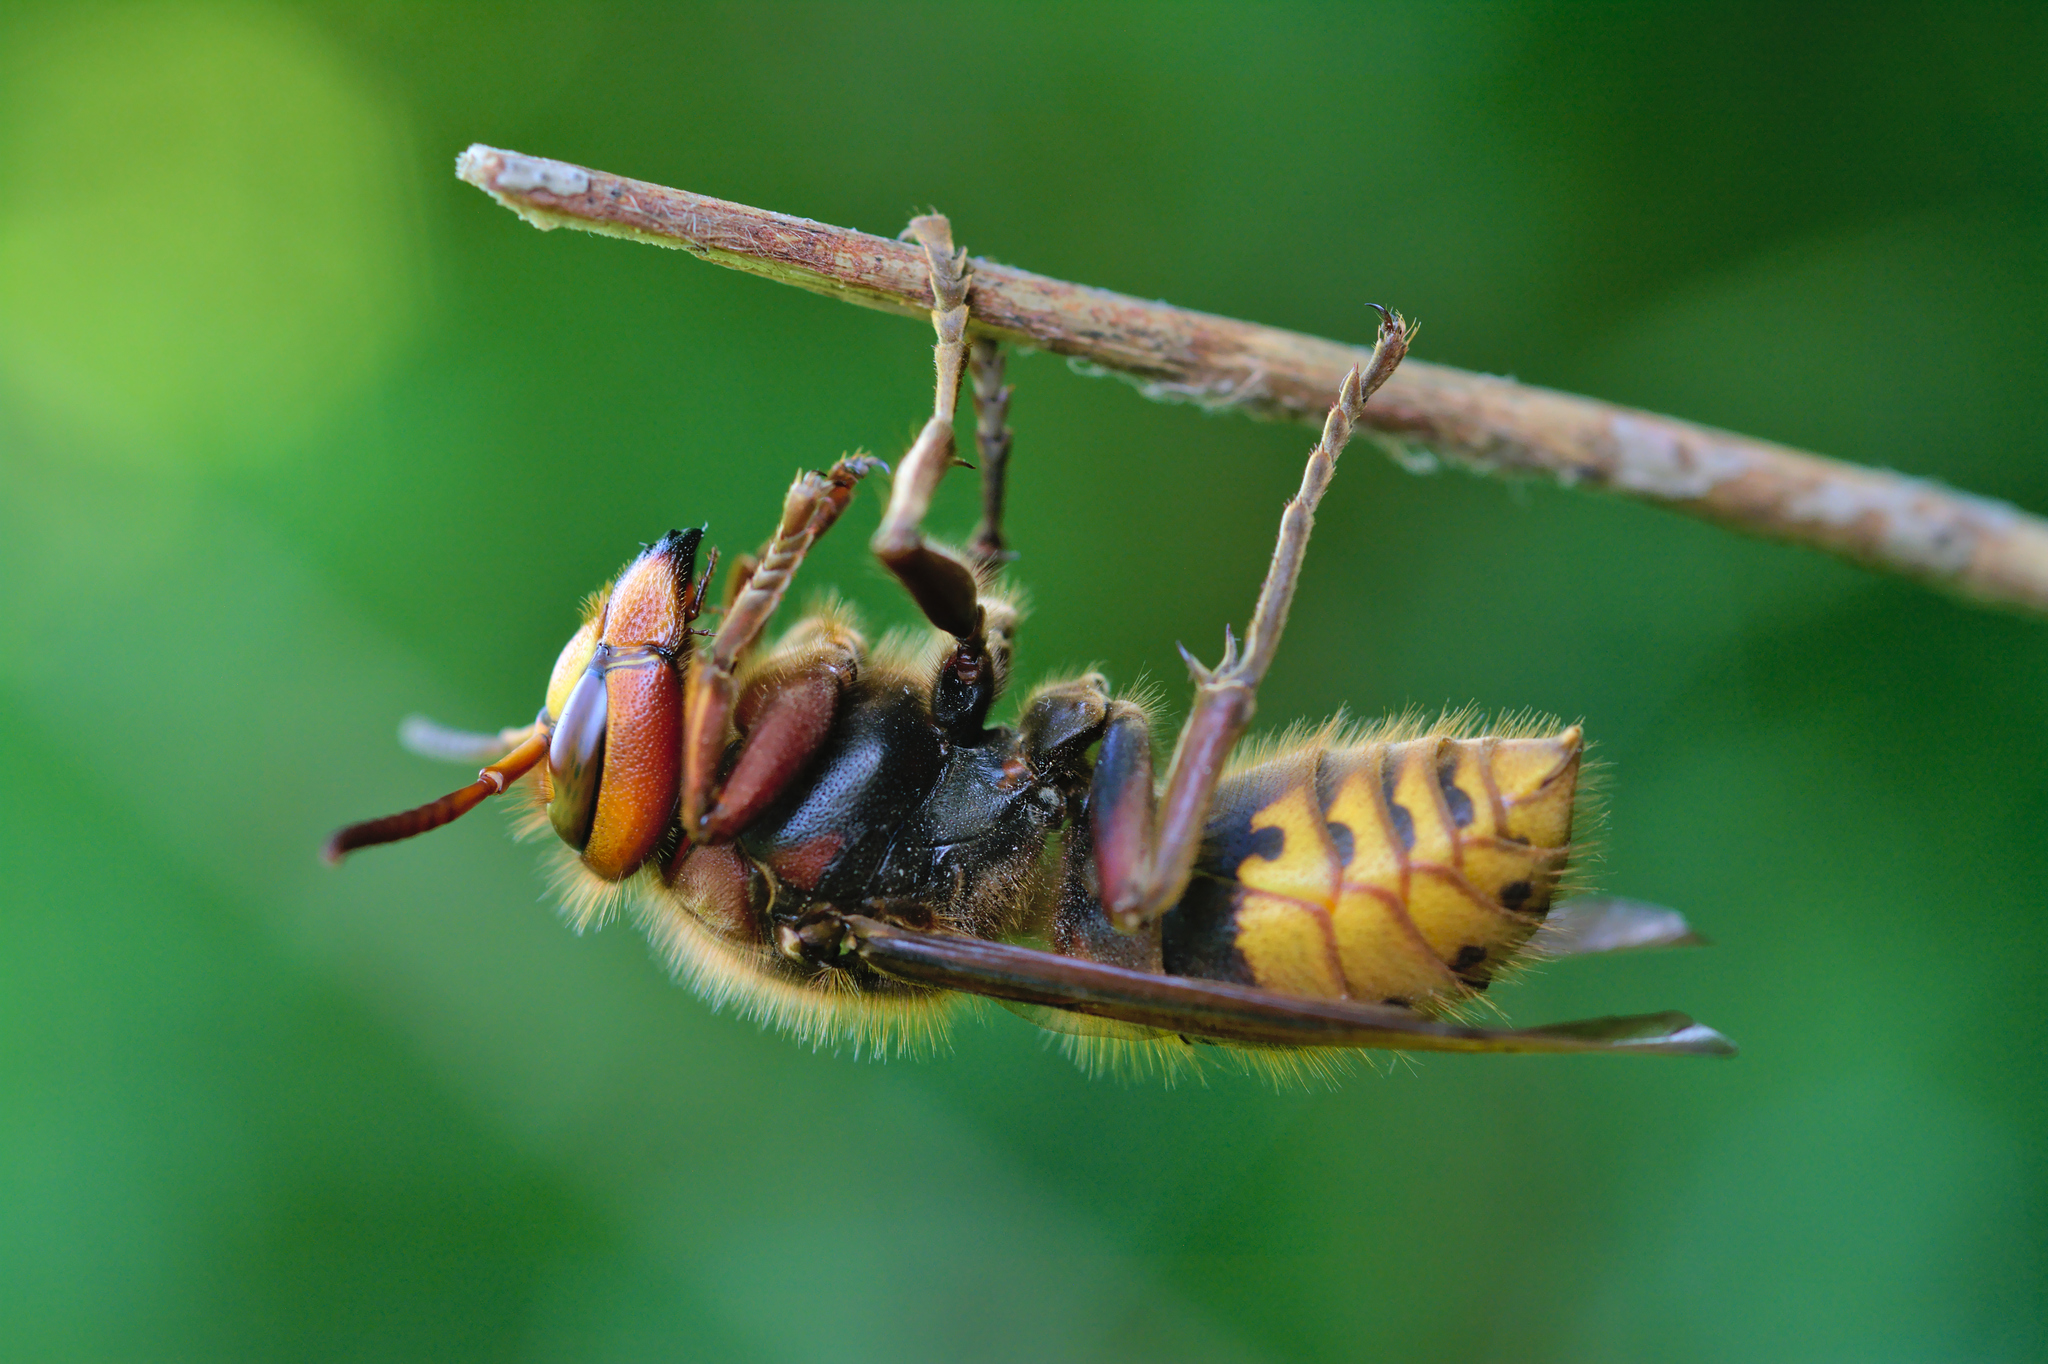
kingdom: Animalia
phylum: Arthropoda
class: Insecta
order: Hymenoptera
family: Vespidae
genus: Vespa
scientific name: Vespa crabro
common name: Hornet
